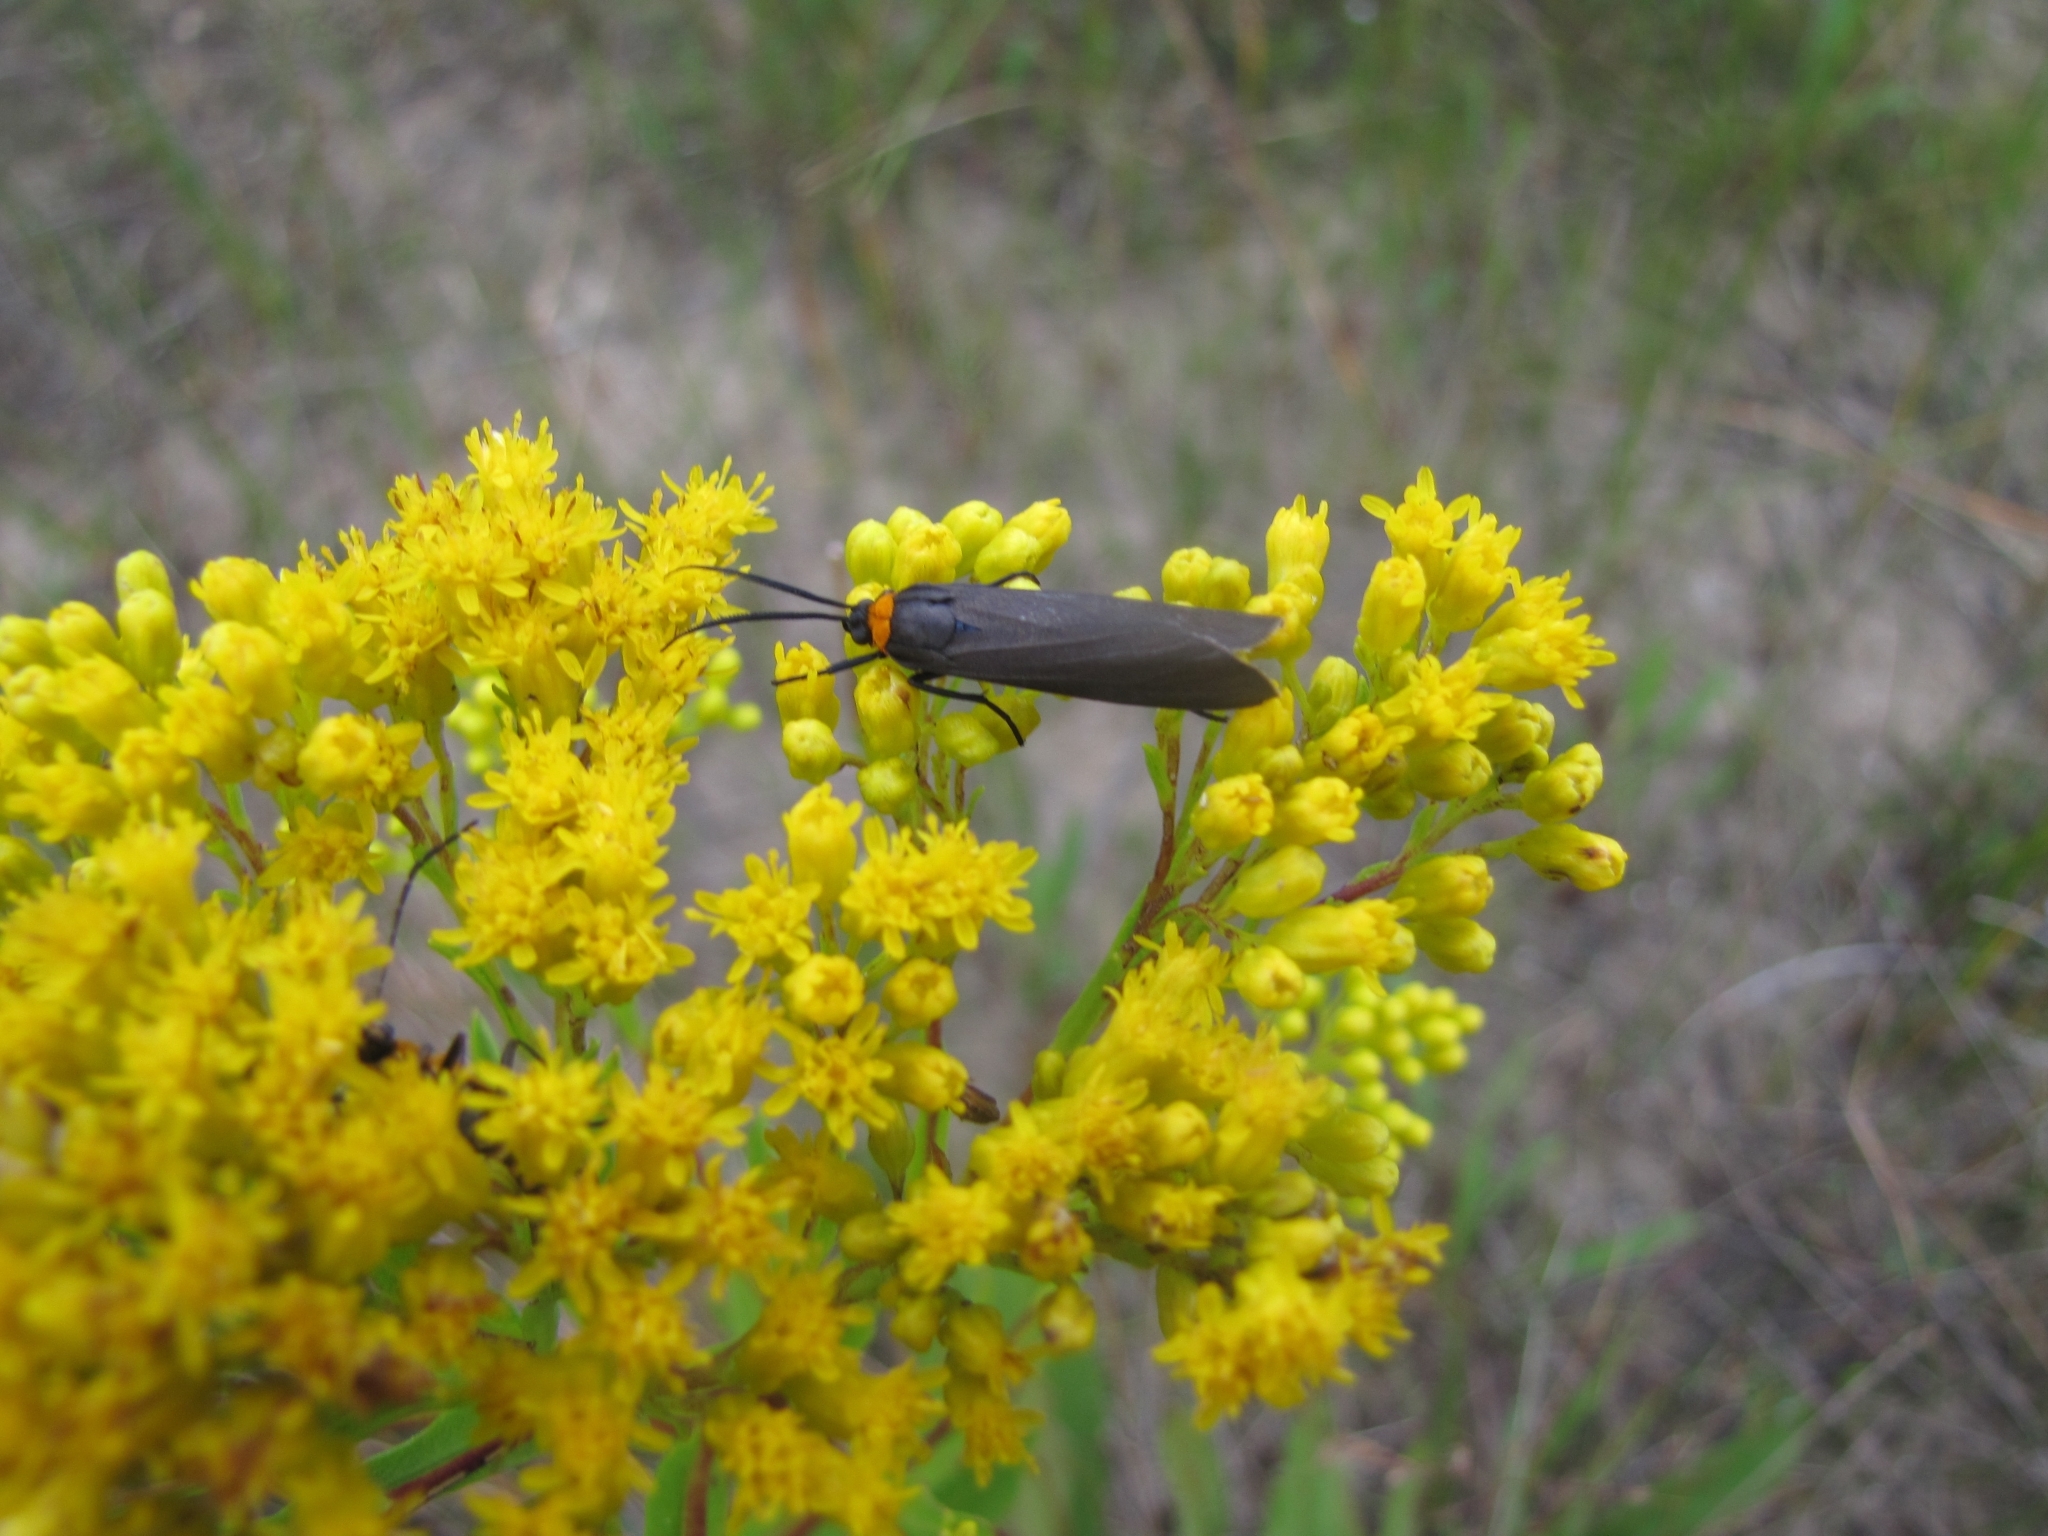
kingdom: Animalia
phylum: Arthropoda
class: Insecta
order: Lepidoptera
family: Erebidae
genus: Cisseps
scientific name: Cisseps fulvicollis
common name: Yellow-collared scape moth
